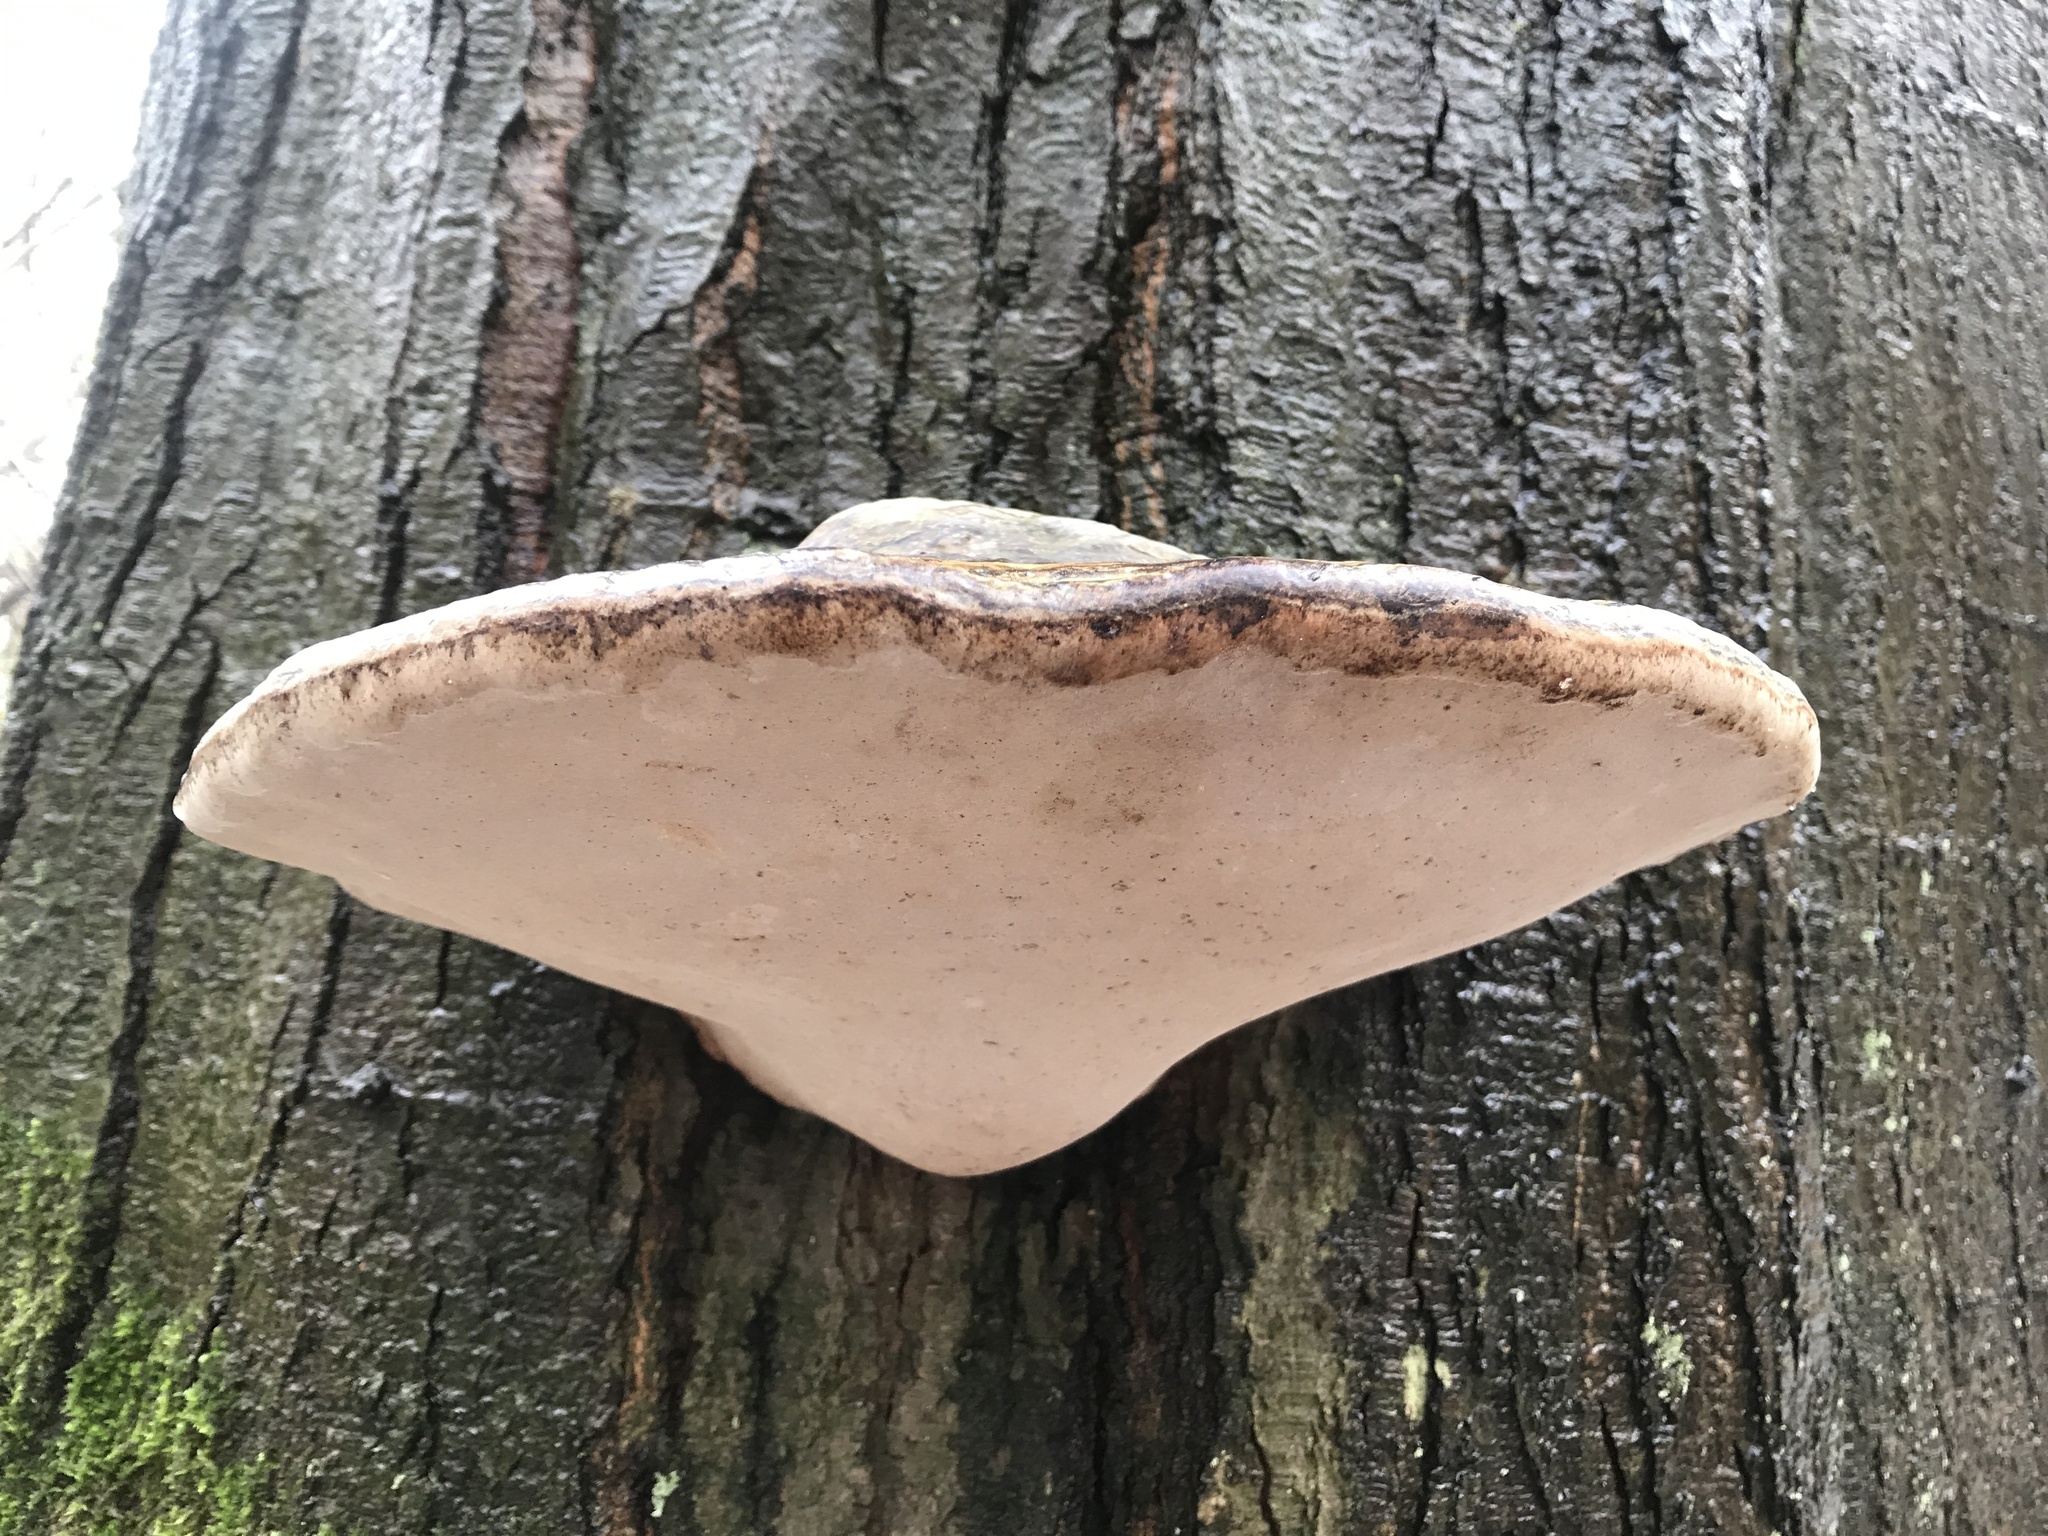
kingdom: Fungi
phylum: Basidiomycota
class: Agaricomycetes
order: Polyporales
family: Polyporaceae
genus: Fomes
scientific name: Fomes fomentarius
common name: Hoof fungus
